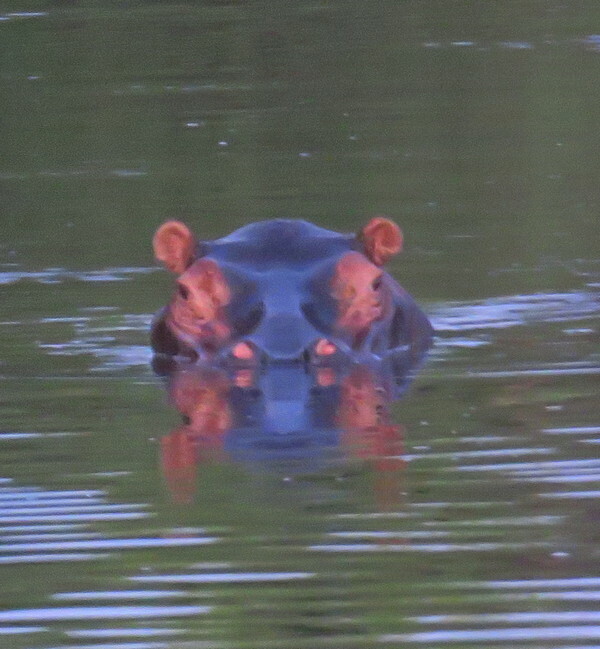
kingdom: Animalia
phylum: Chordata
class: Mammalia
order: Artiodactyla
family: Hippopotamidae
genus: Hippopotamus
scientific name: Hippopotamus amphibius
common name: Common hippopotamus
